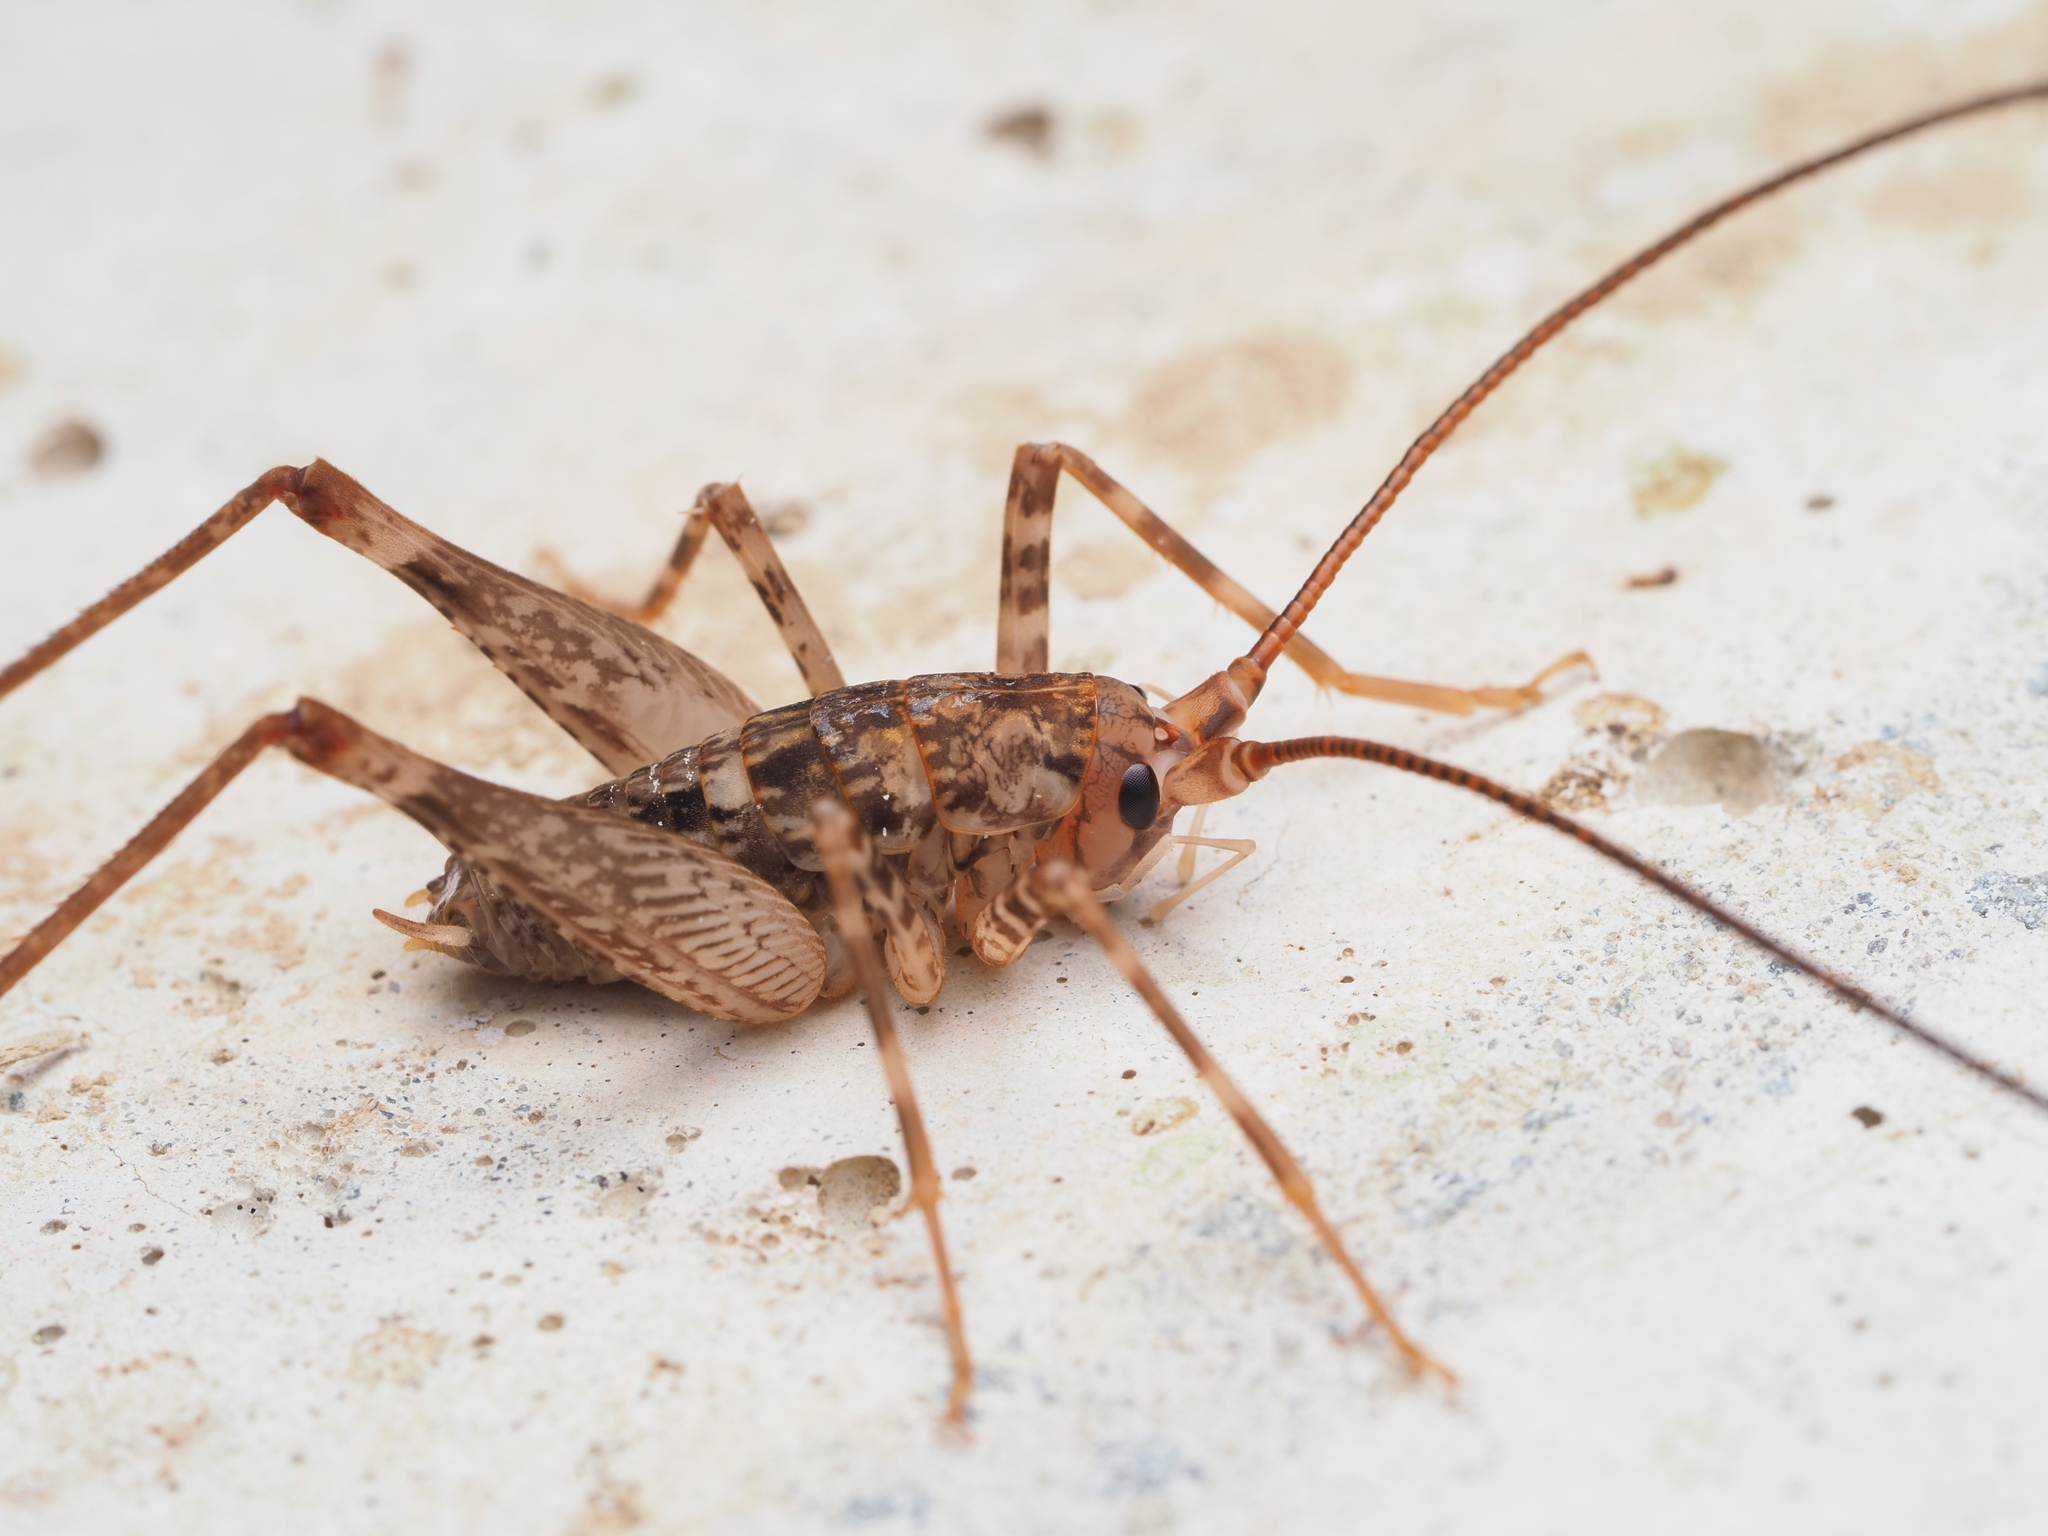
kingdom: Animalia
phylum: Arthropoda
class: Insecta
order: Orthoptera
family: Rhaphidophoridae
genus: Pleioplectron
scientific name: Pleioplectron simplex
